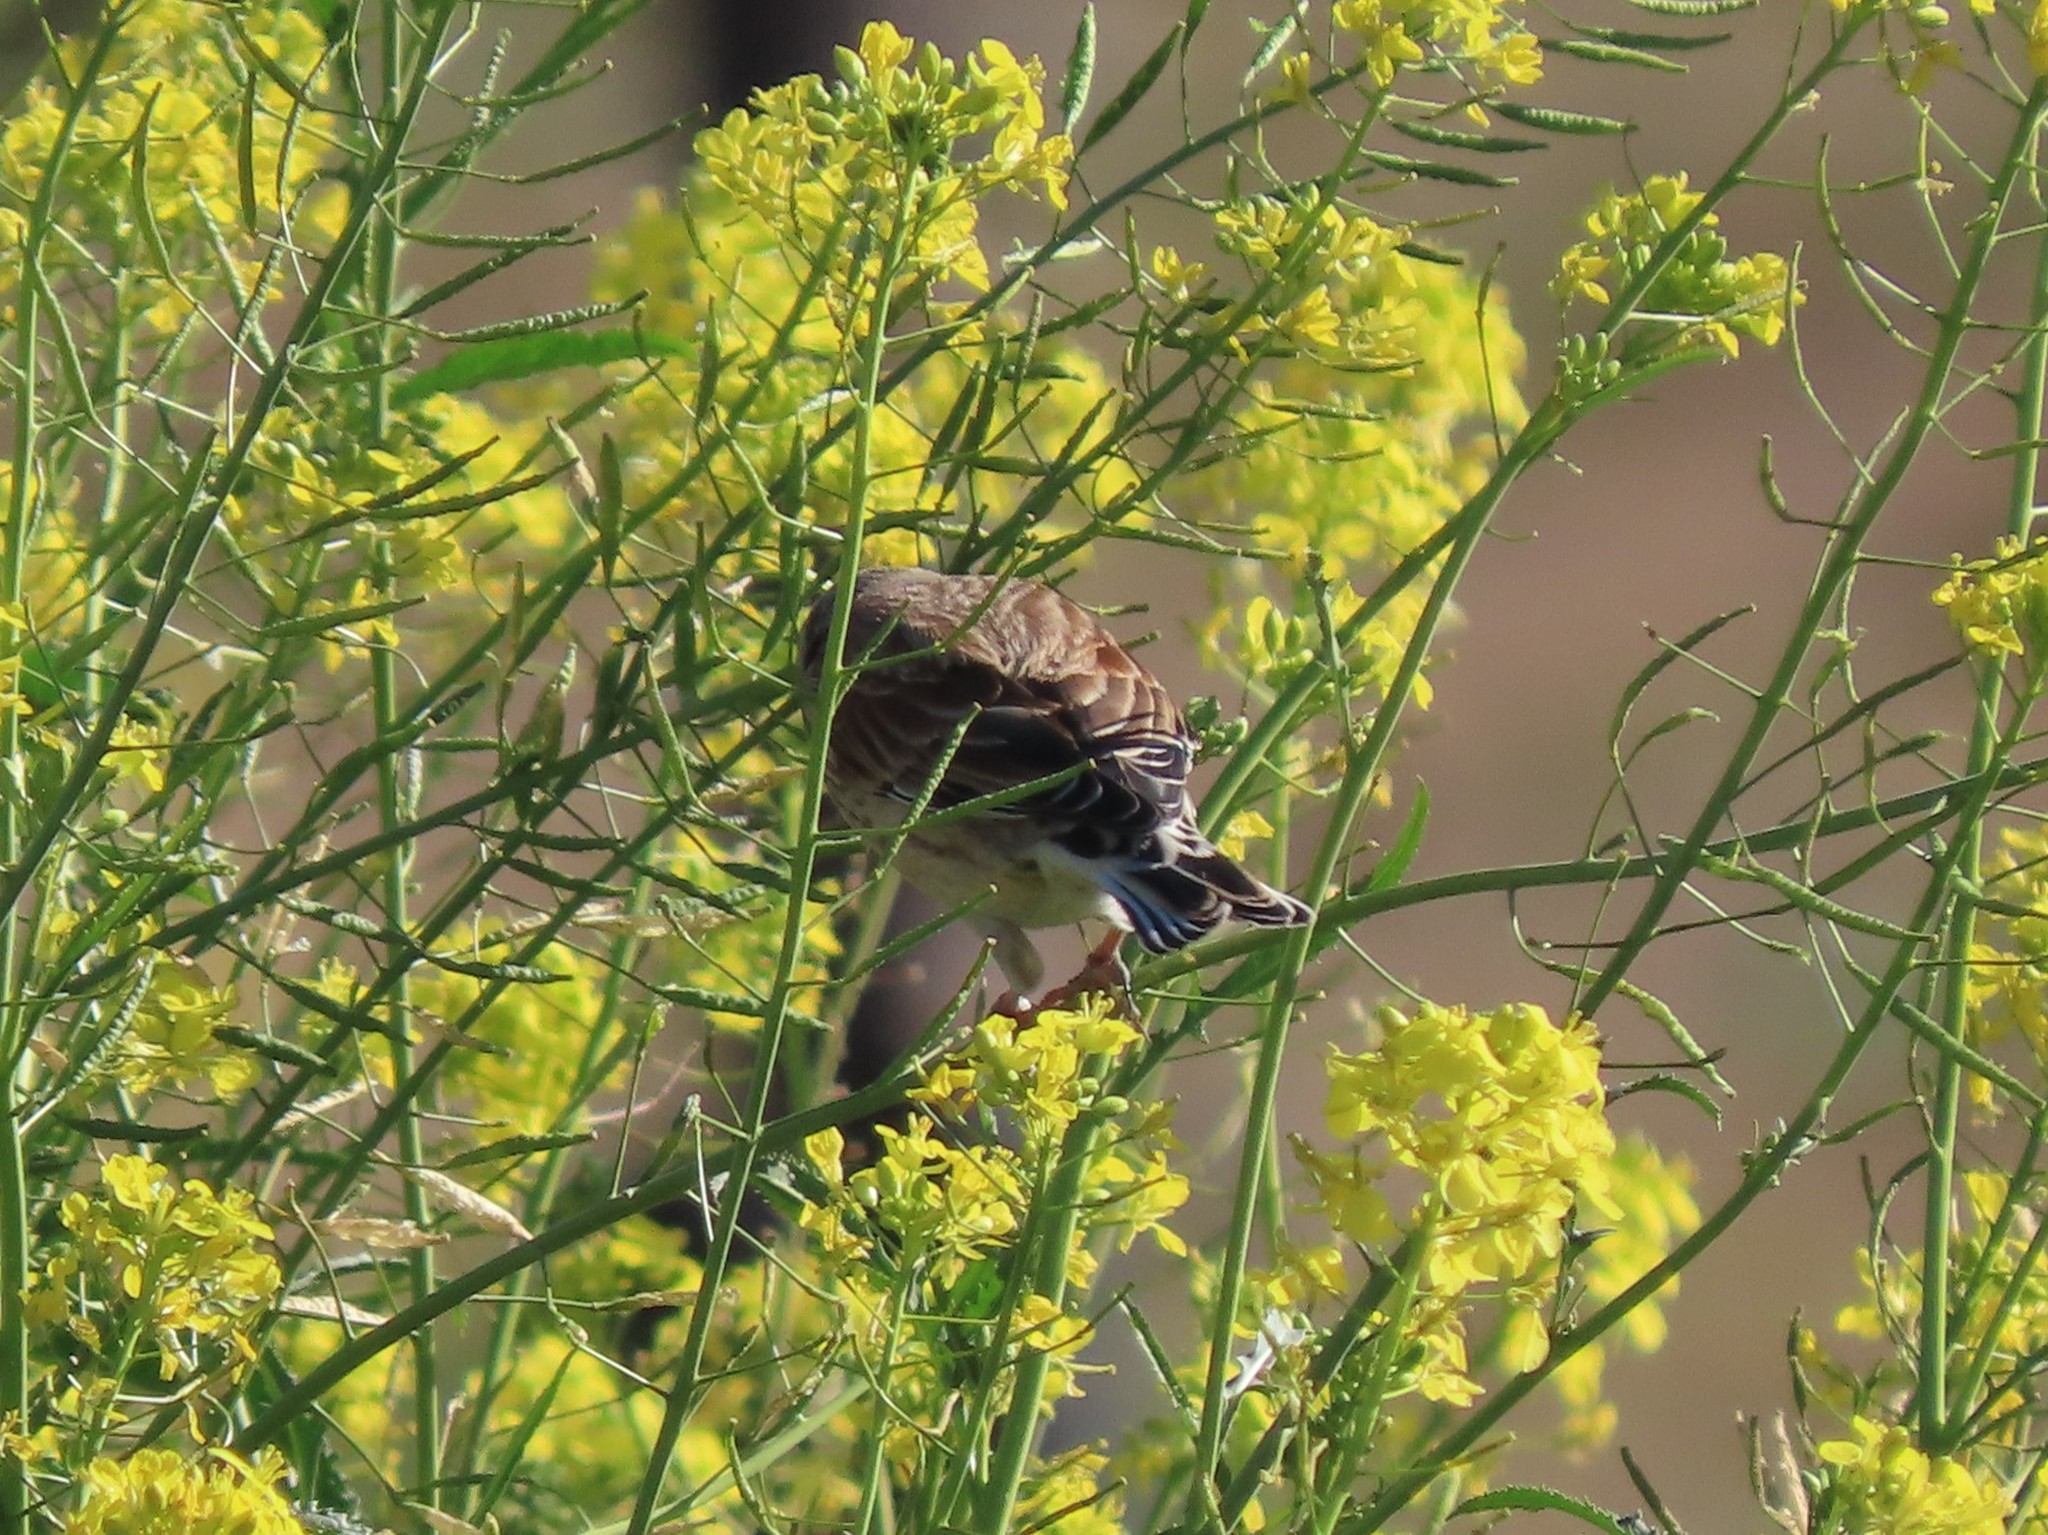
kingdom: Animalia
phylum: Chordata
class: Aves
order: Passeriformes
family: Fringillidae
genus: Linaria
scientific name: Linaria cannabina
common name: Common linnet
